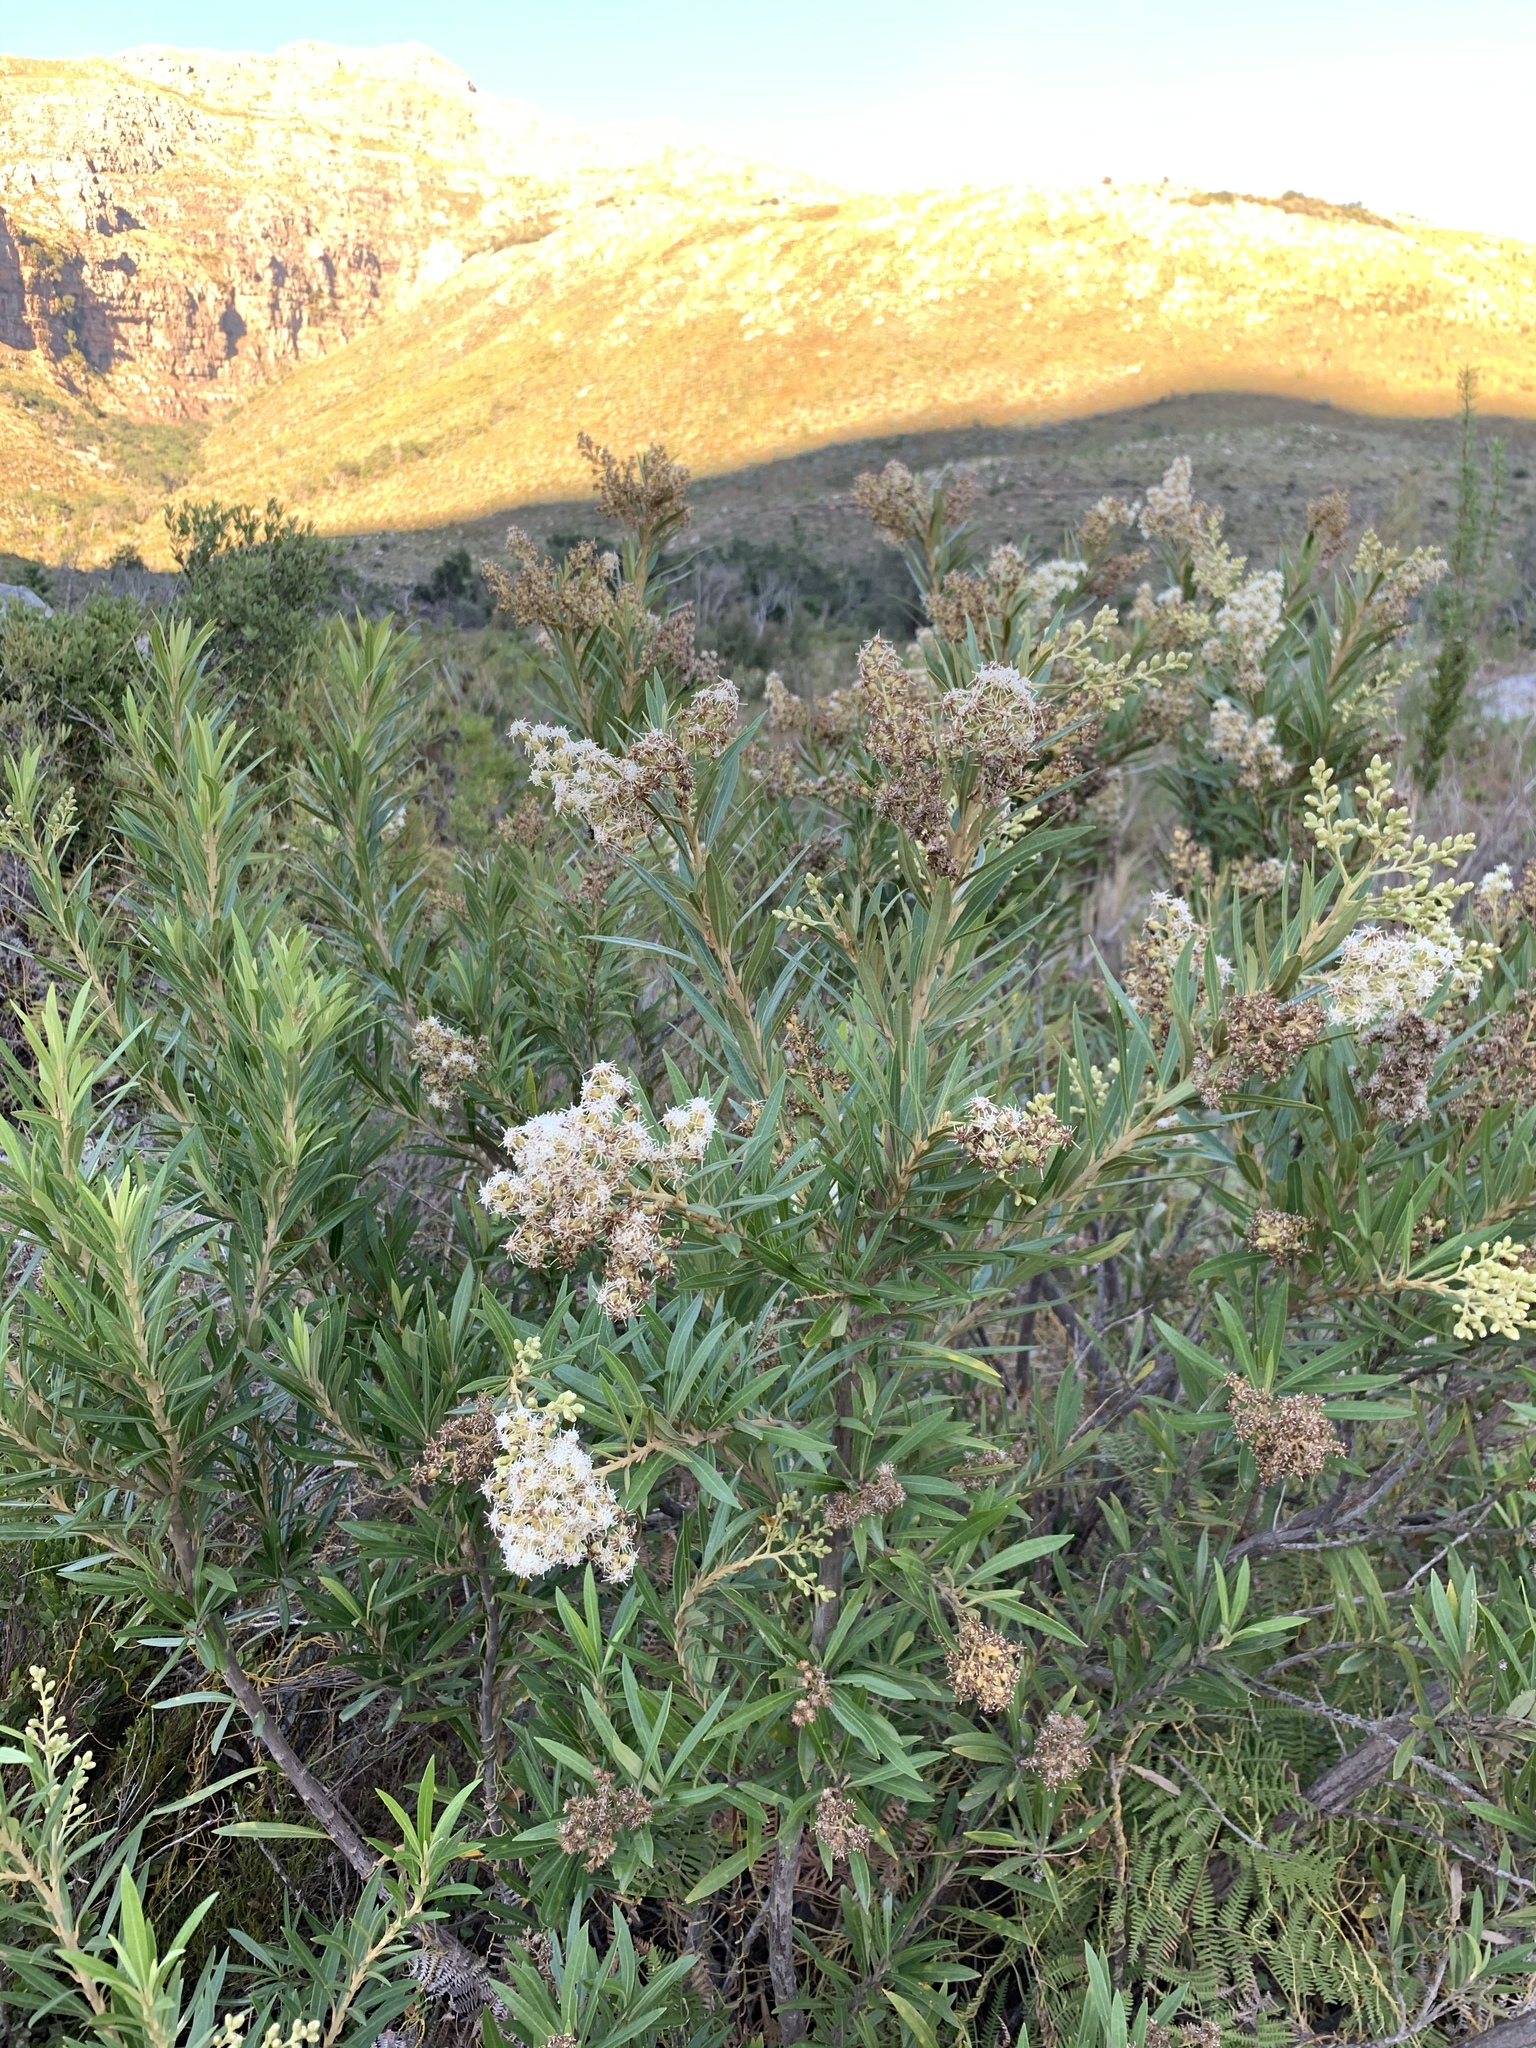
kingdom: Plantae
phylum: Tracheophyta
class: Magnoliopsida
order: Asterales
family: Asteraceae
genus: Brachylaena
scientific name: Brachylaena neriifolia
